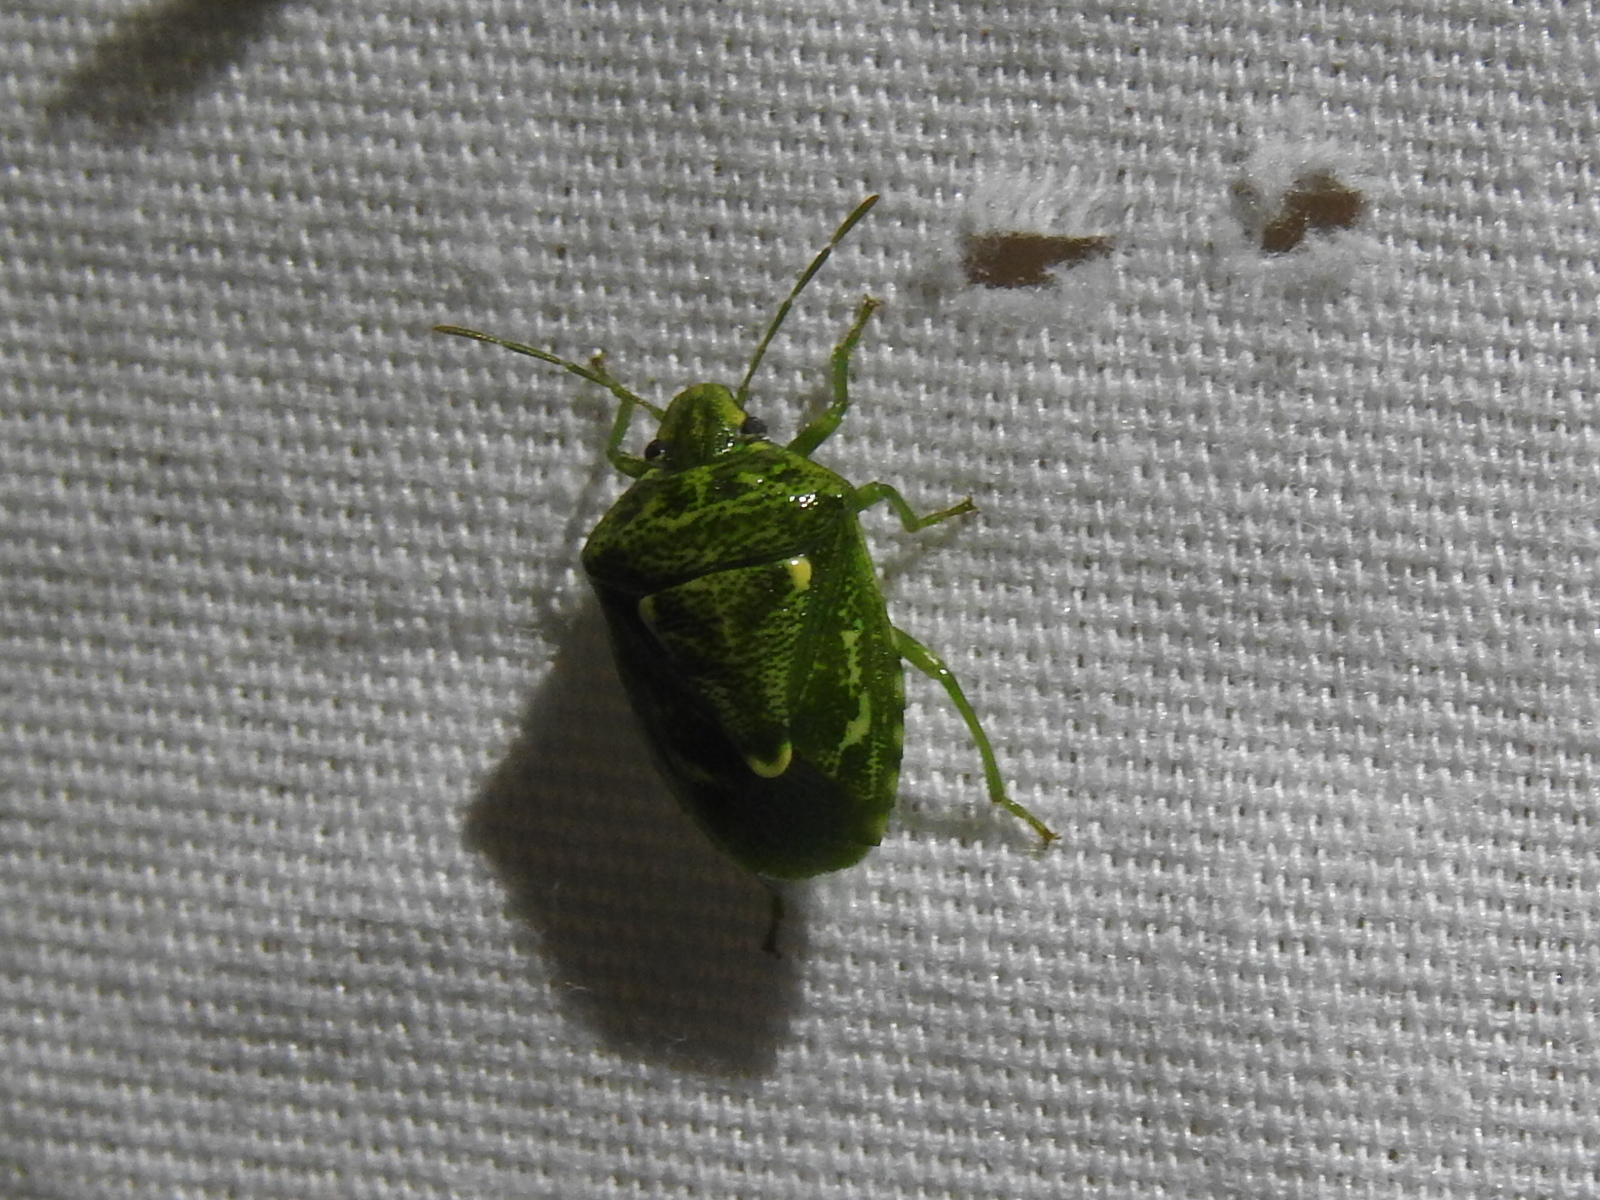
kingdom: Animalia
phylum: Arthropoda
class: Insecta
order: Hemiptera
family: Pentatomidae
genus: Banasa
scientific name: Banasa euchlora
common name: Cedar berry bug
